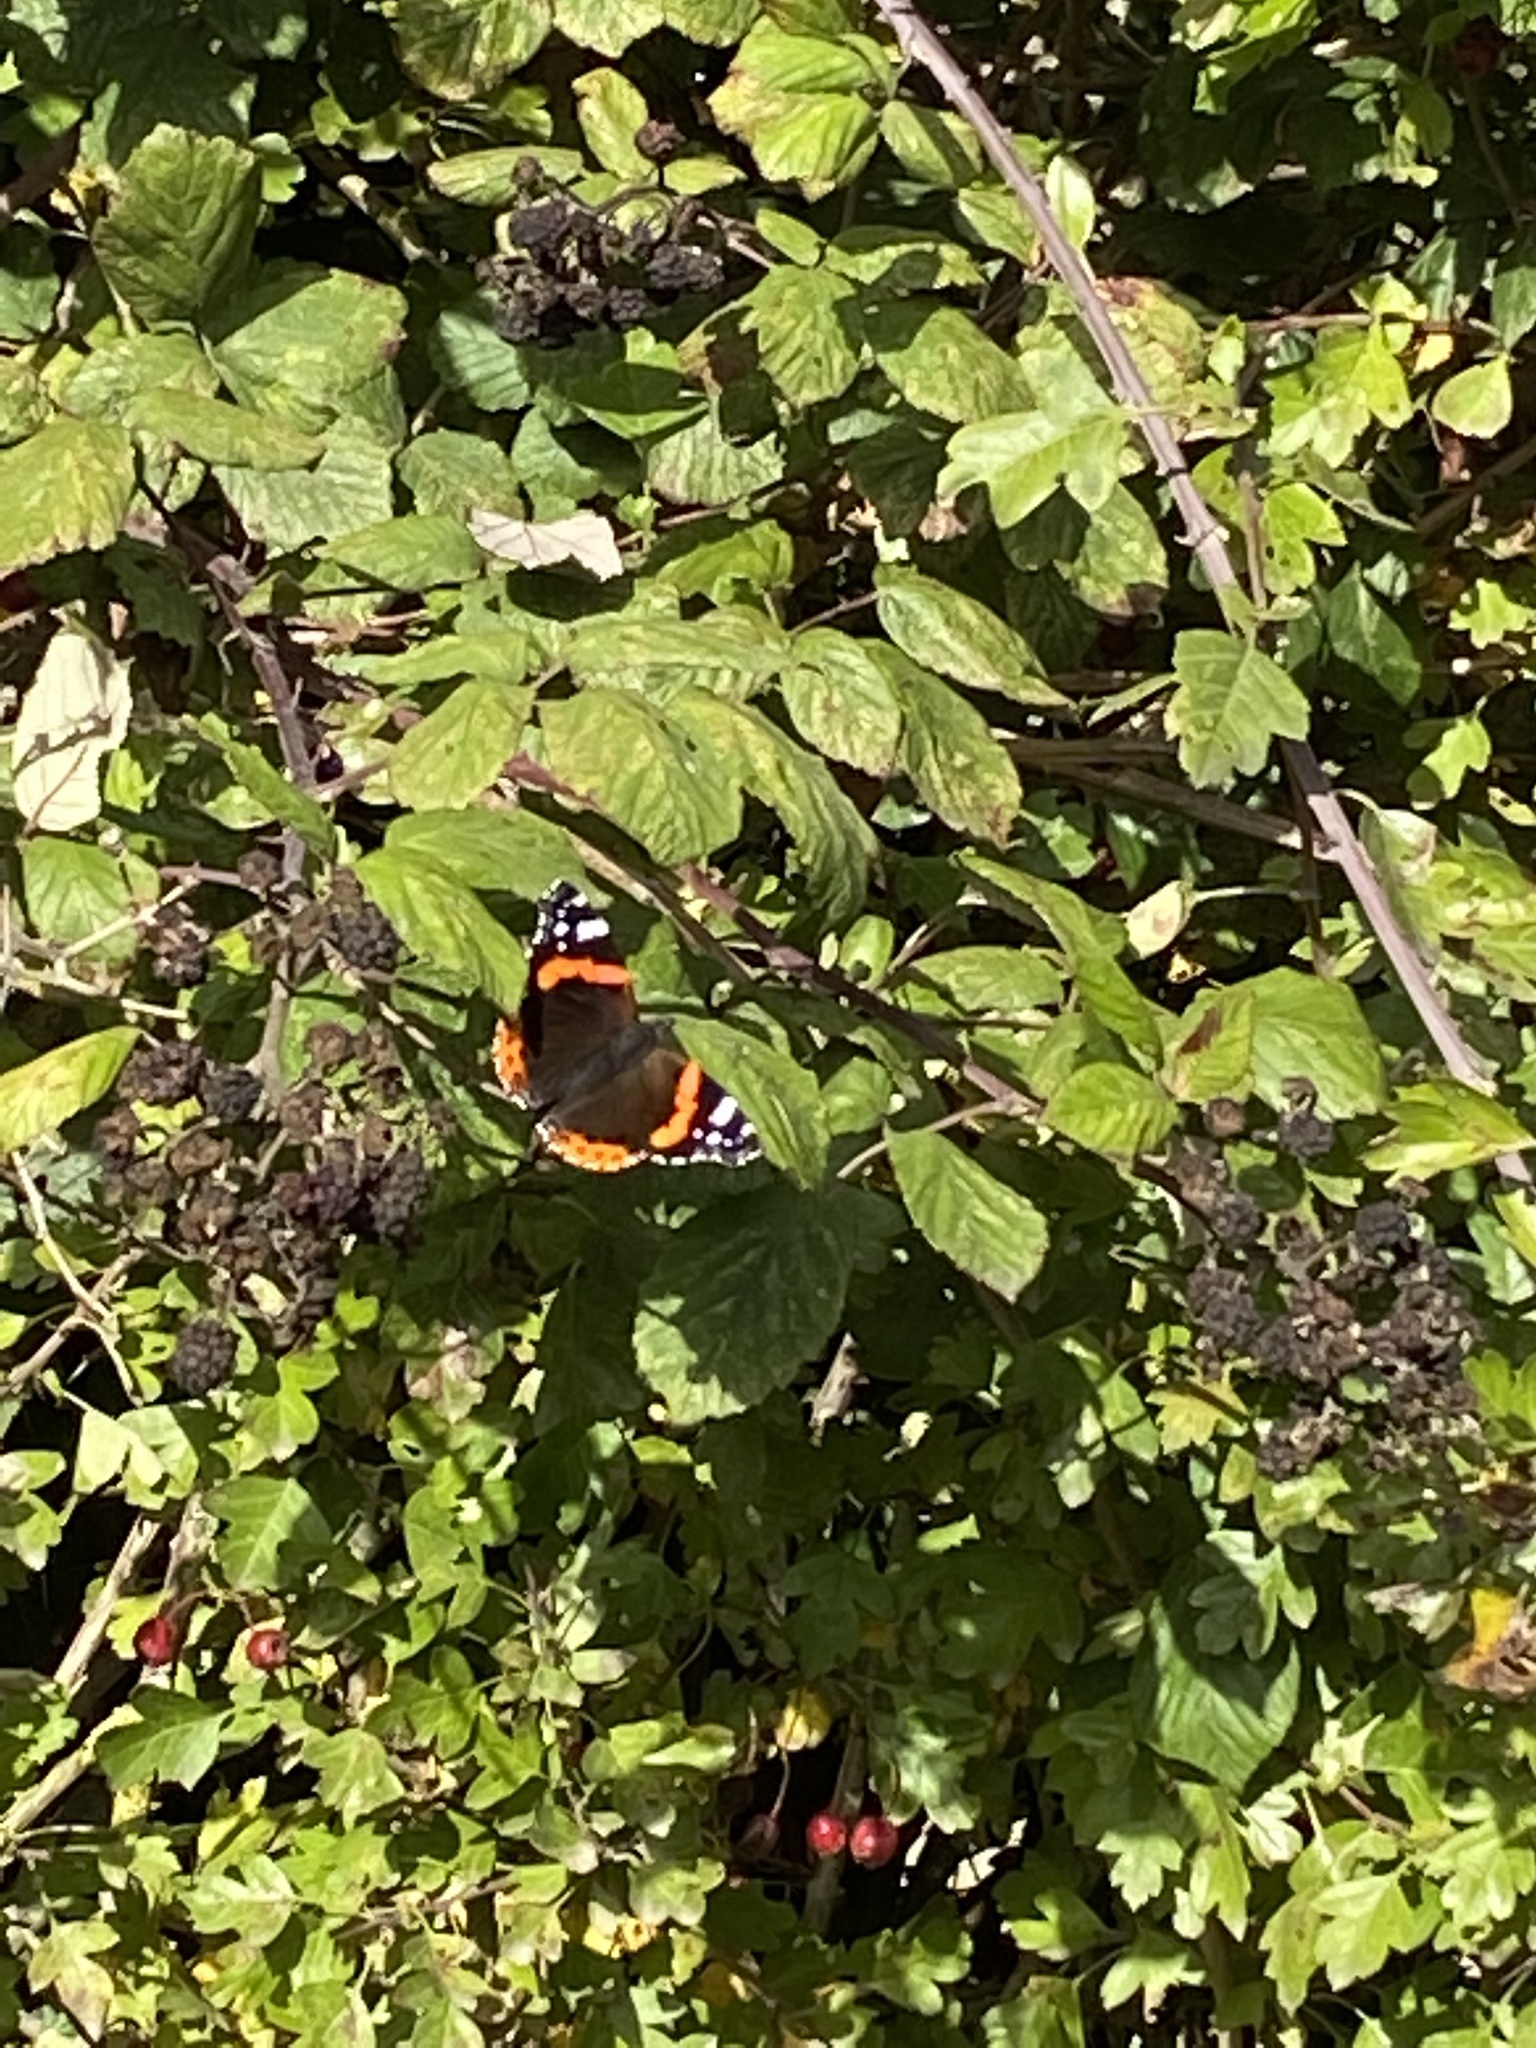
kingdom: Animalia
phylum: Arthropoda
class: Insecta
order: Lepidoptera
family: Nymphalidae
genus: Vanessa
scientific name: Vanessa atalanta
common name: Red admiral
